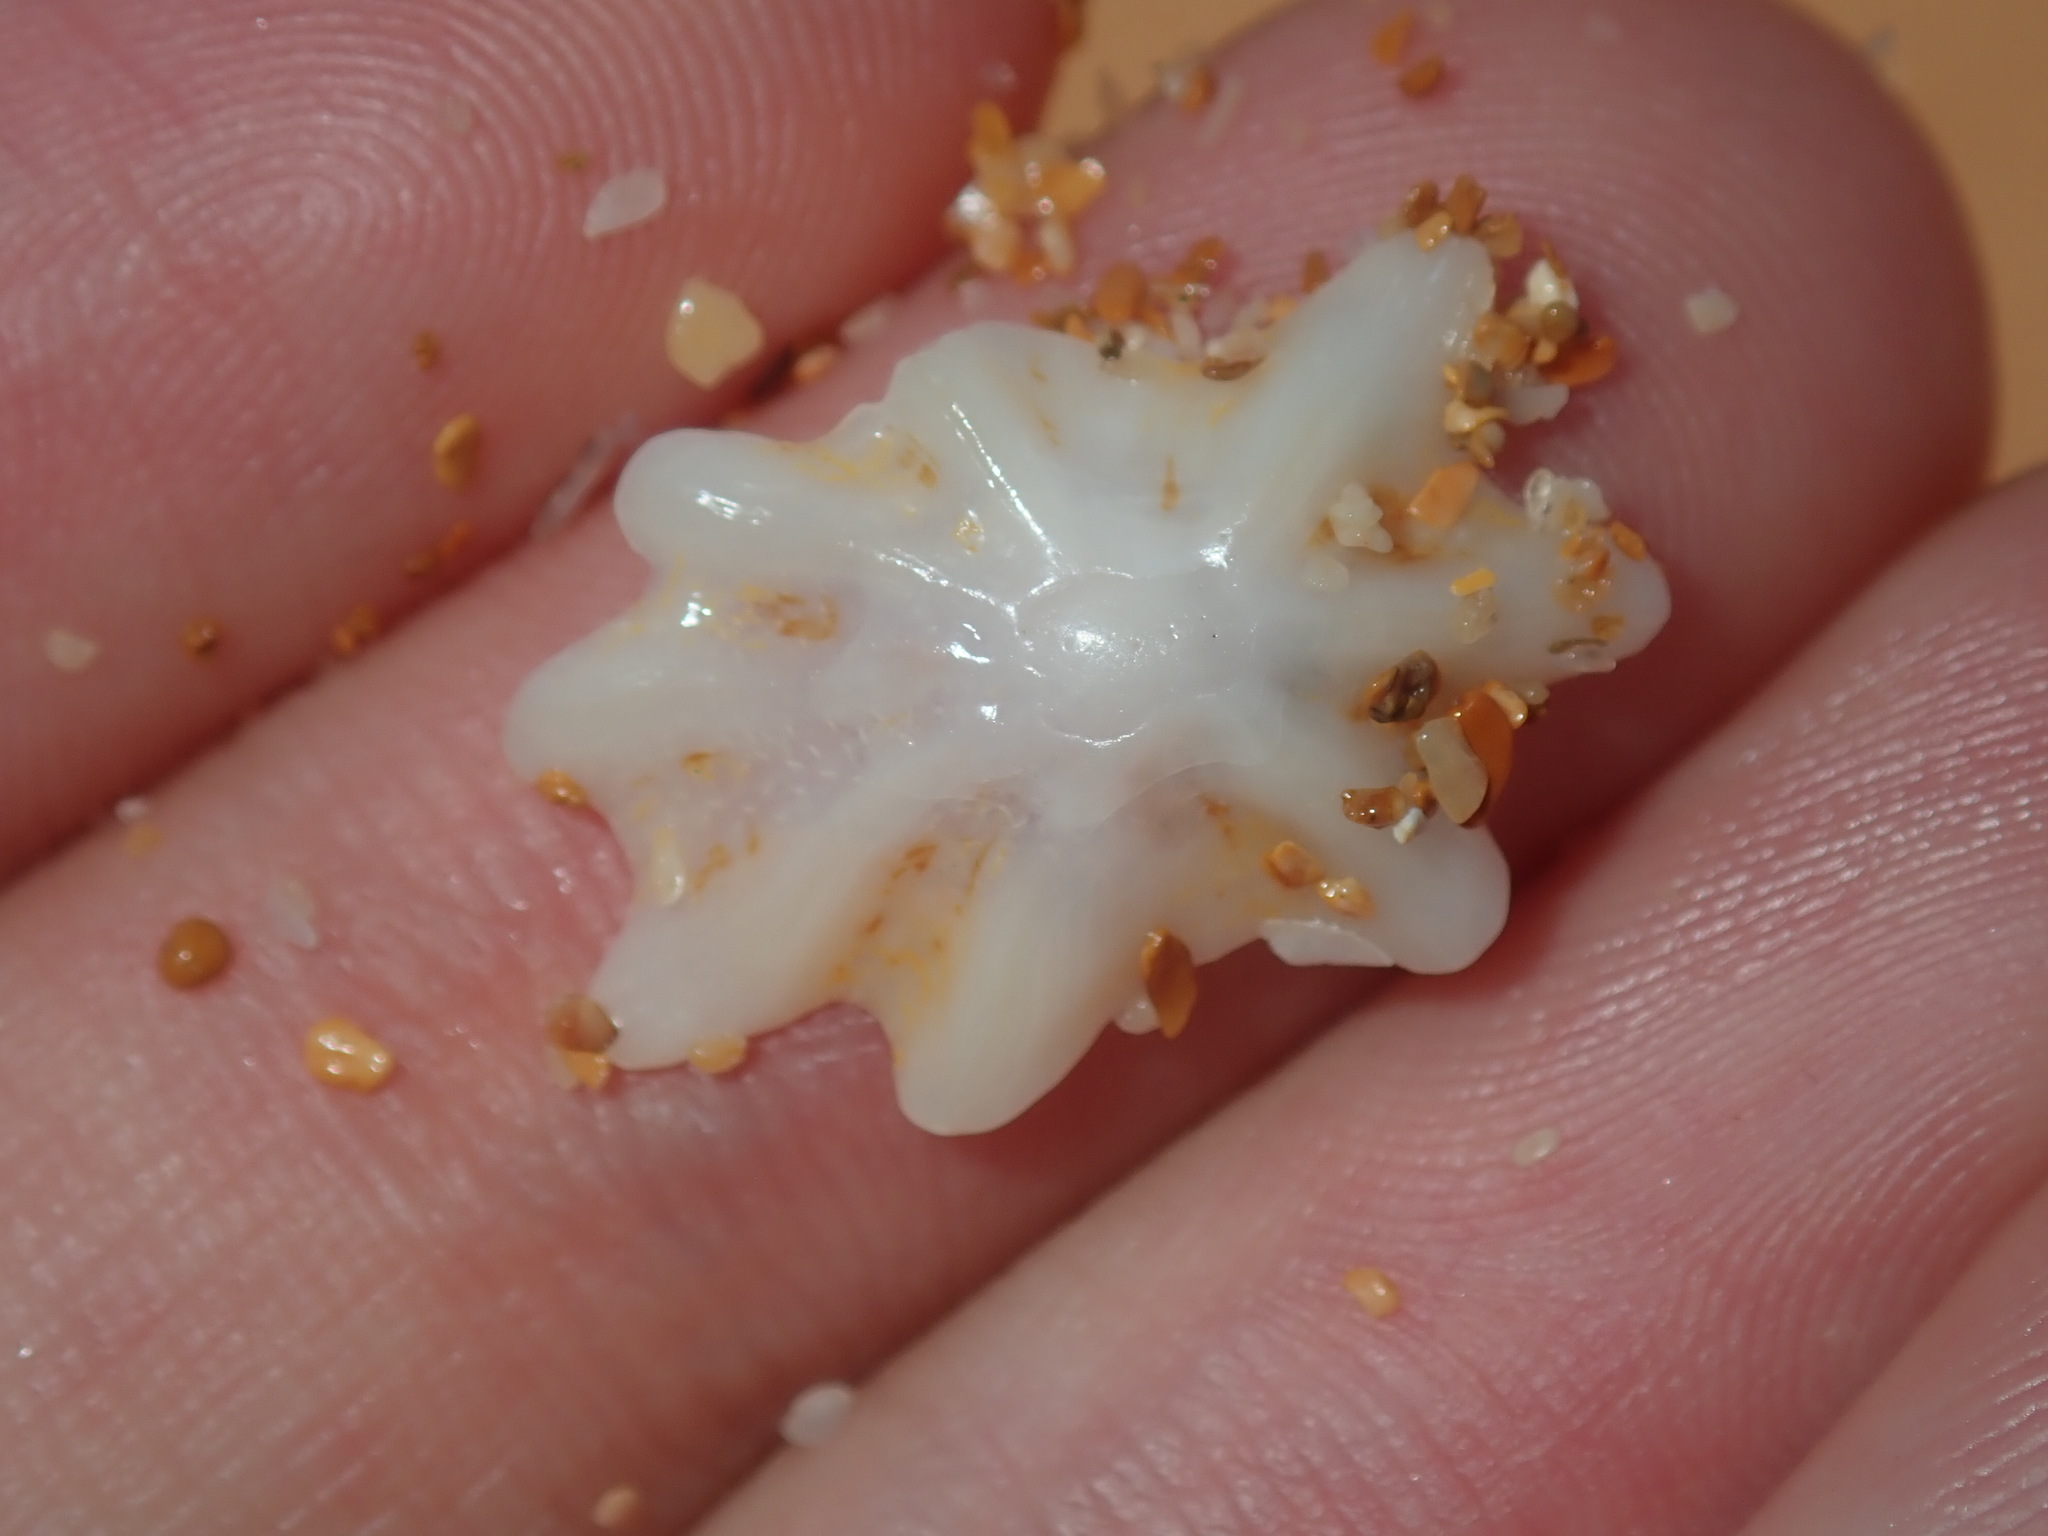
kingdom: Animalia
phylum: Mollusca
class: Gastropoda
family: Patellidae
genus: Scutellastra
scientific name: Scutellastra chapmani
